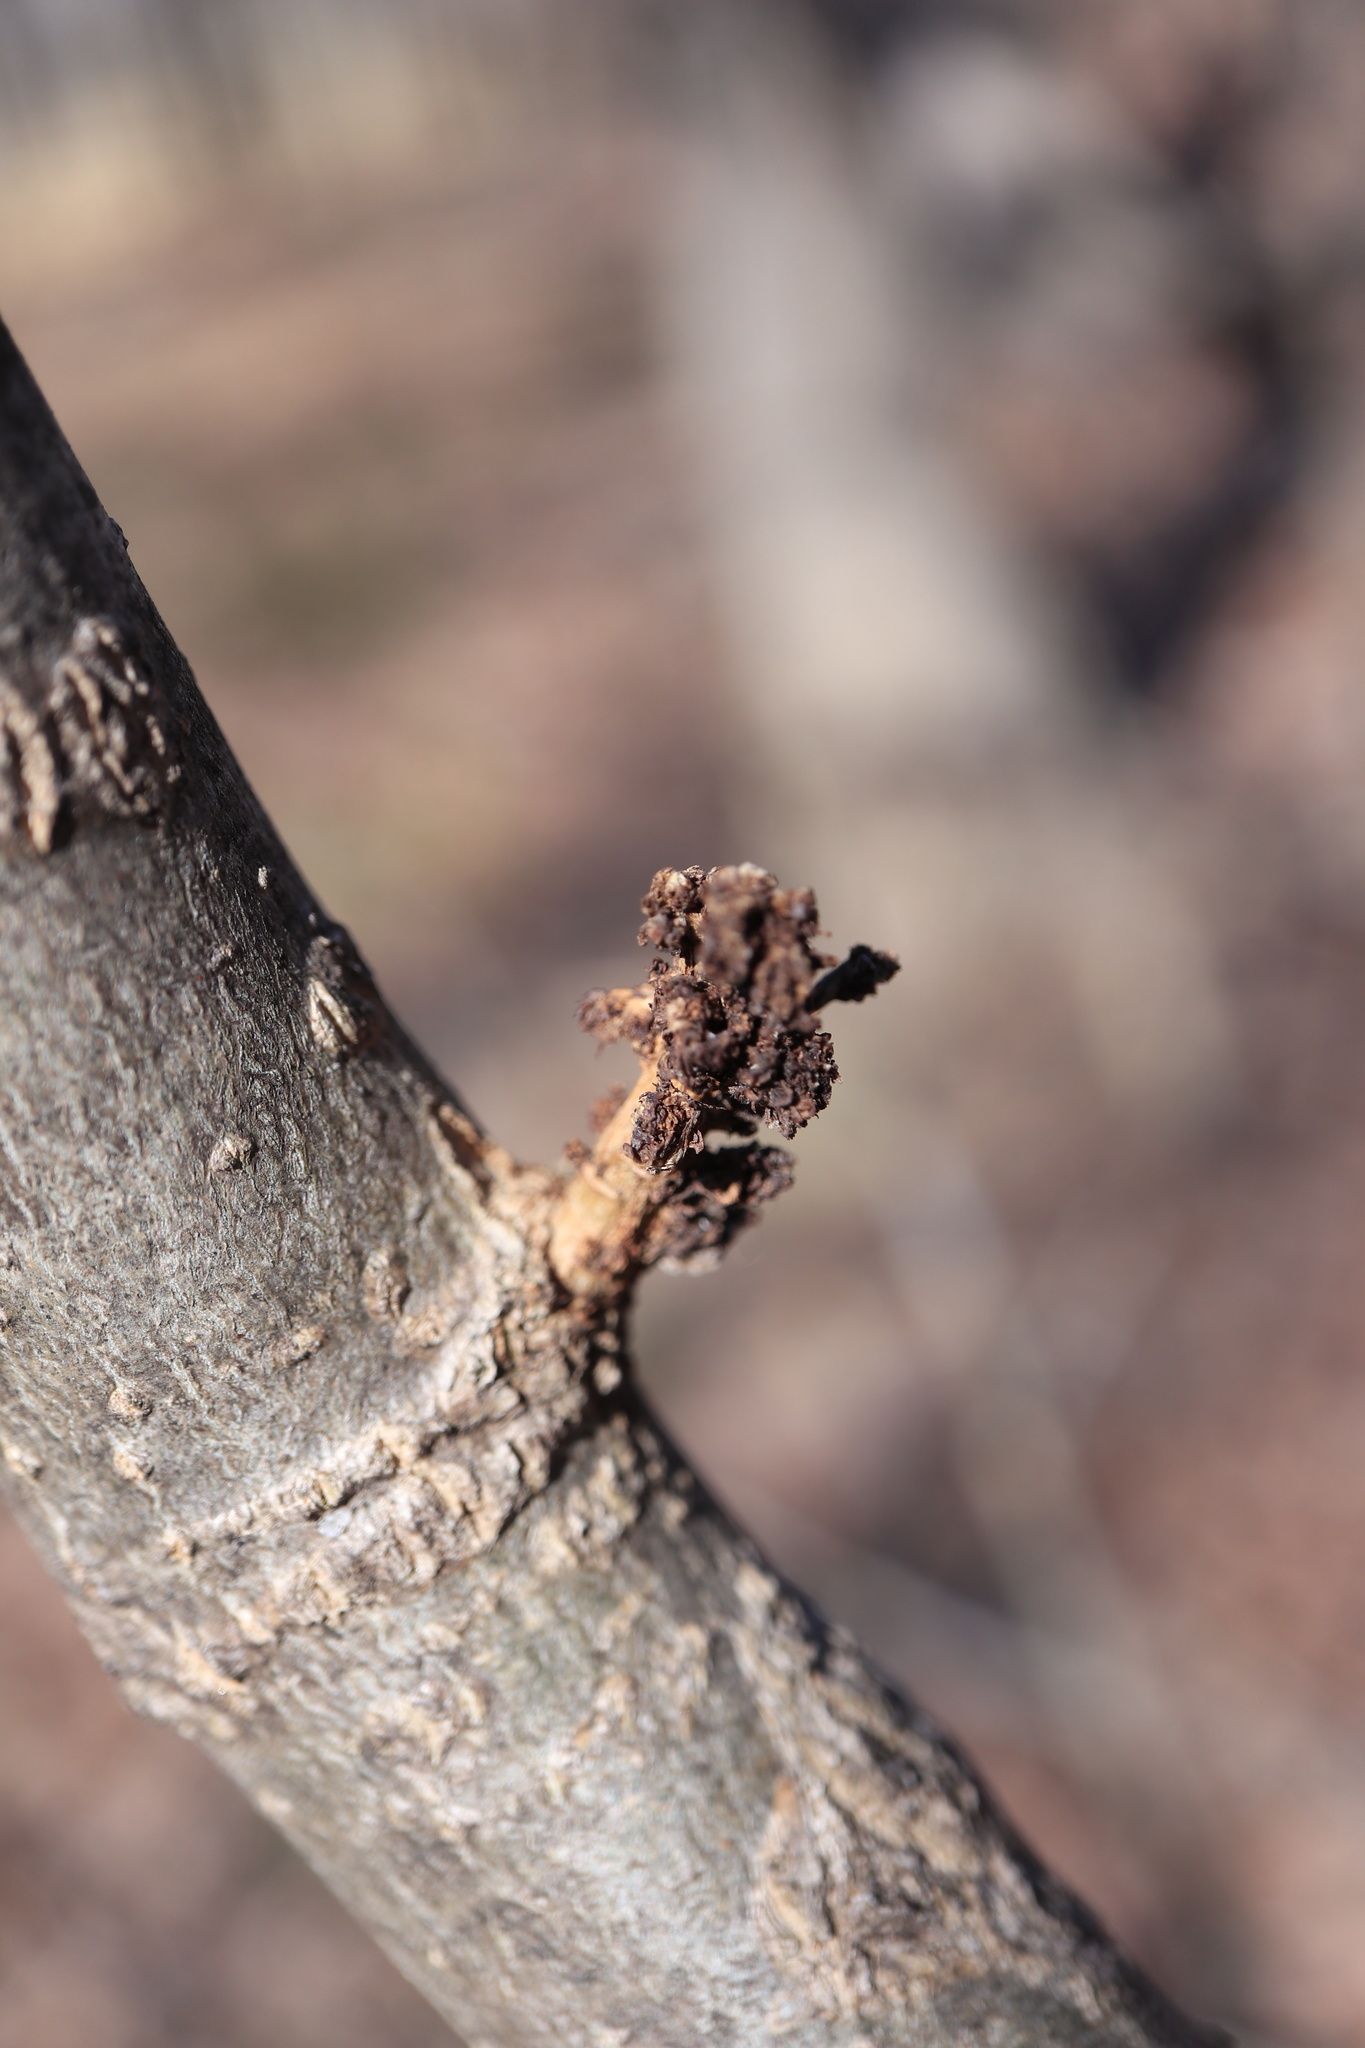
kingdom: Animalia
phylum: Arthropoda
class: Arachnida
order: Trombidiformes
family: Eriophyidae
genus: Aceria
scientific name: Aceria fraxiniflora
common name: Ash flower gall mite
